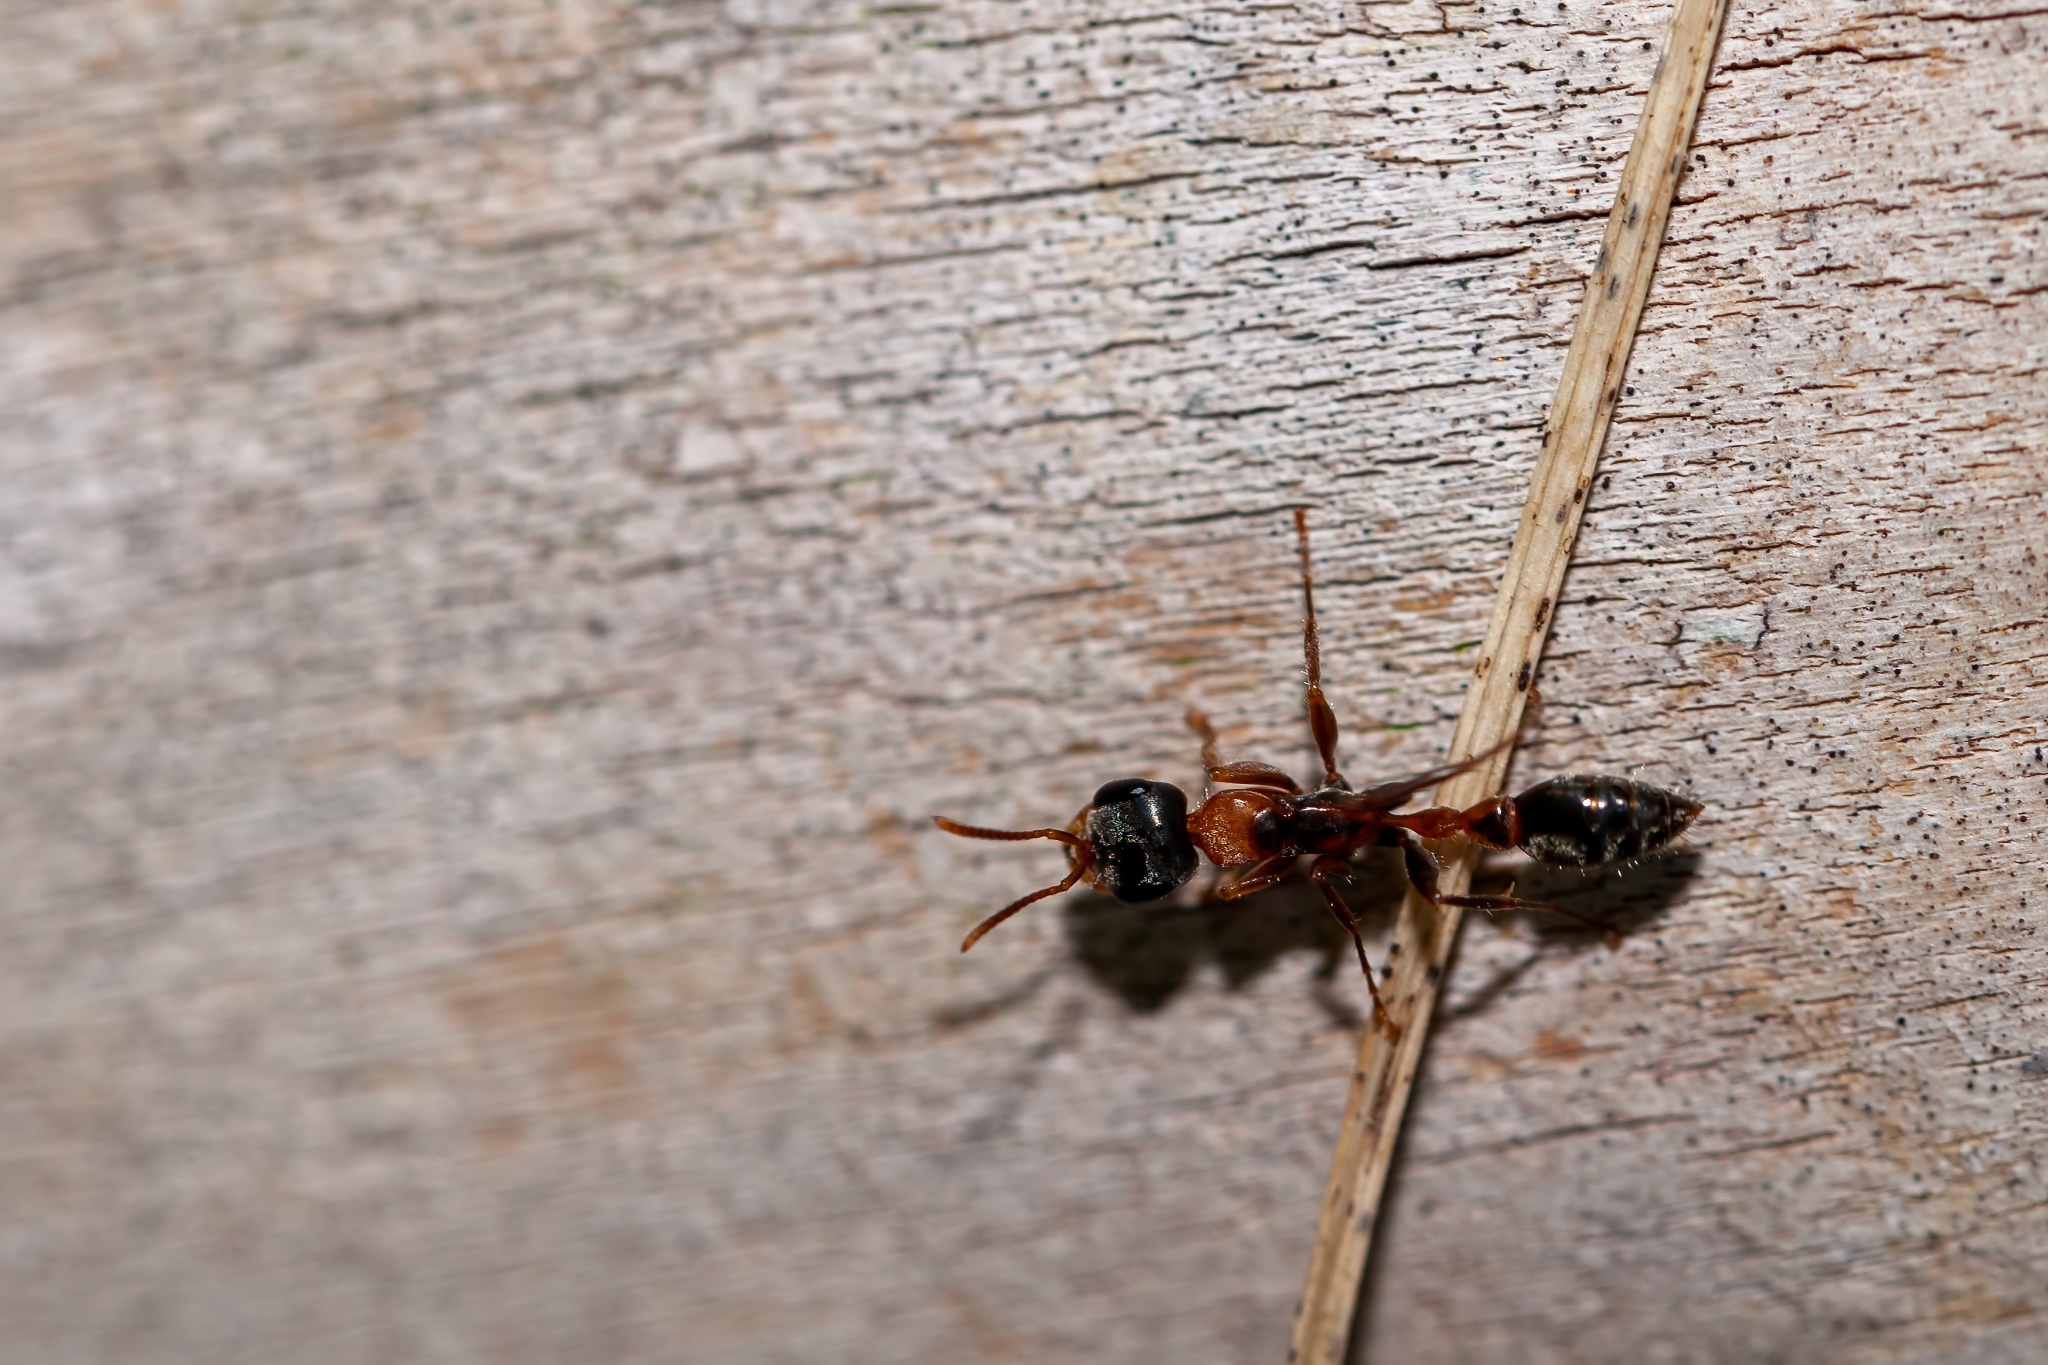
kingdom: Animalia
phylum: Arthropoda
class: Insecta
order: Hymenoptera
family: Formicidae
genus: Pseudomyrmex
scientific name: Pseudomyrmex gracilis
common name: Graceful twig ant
